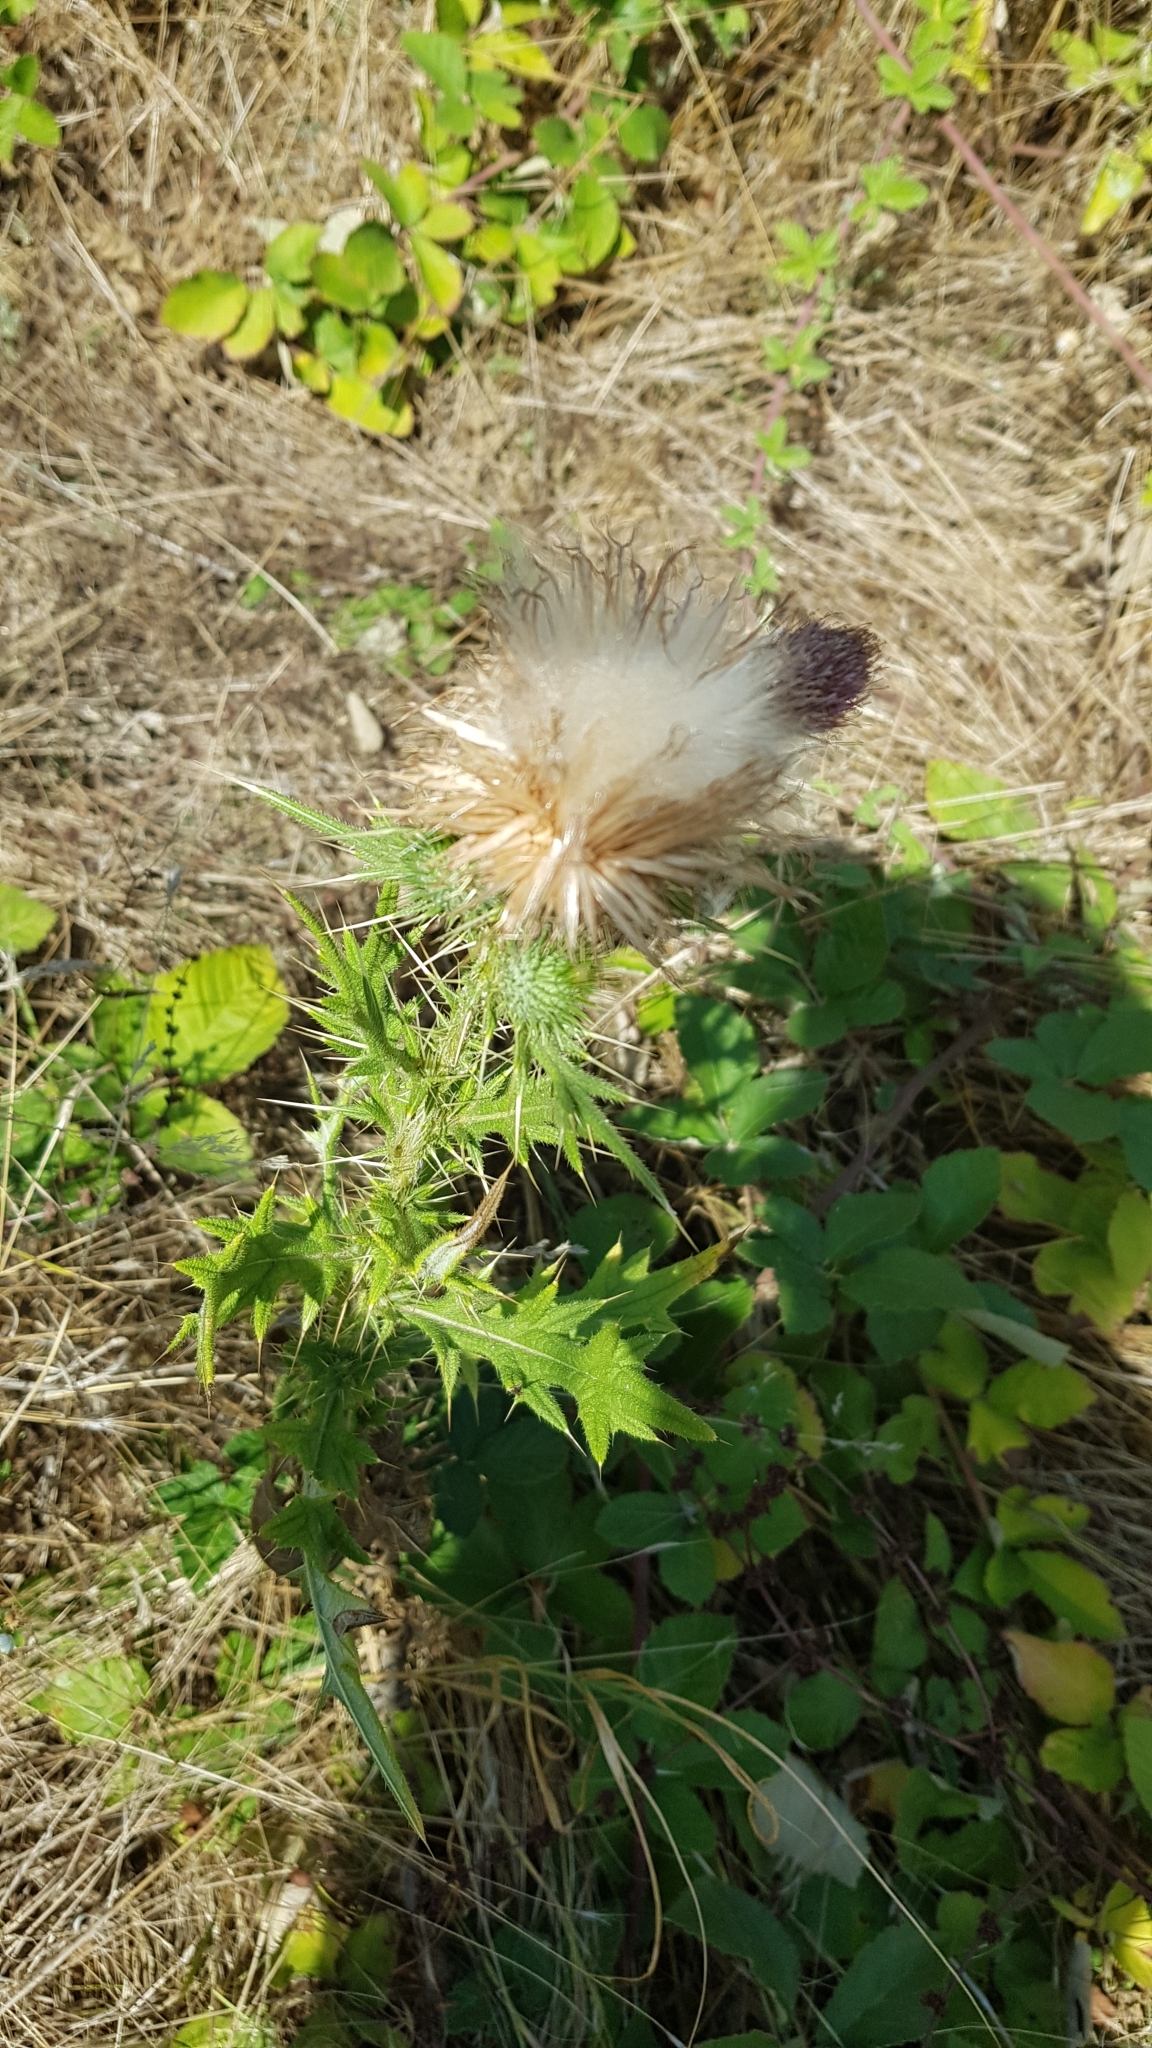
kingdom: Plantae
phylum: Tracheophyta
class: Magnoliopsida
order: Asterales
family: Asteraceae
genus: Cirsium
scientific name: Cirsium vulgare
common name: Bull thistle
